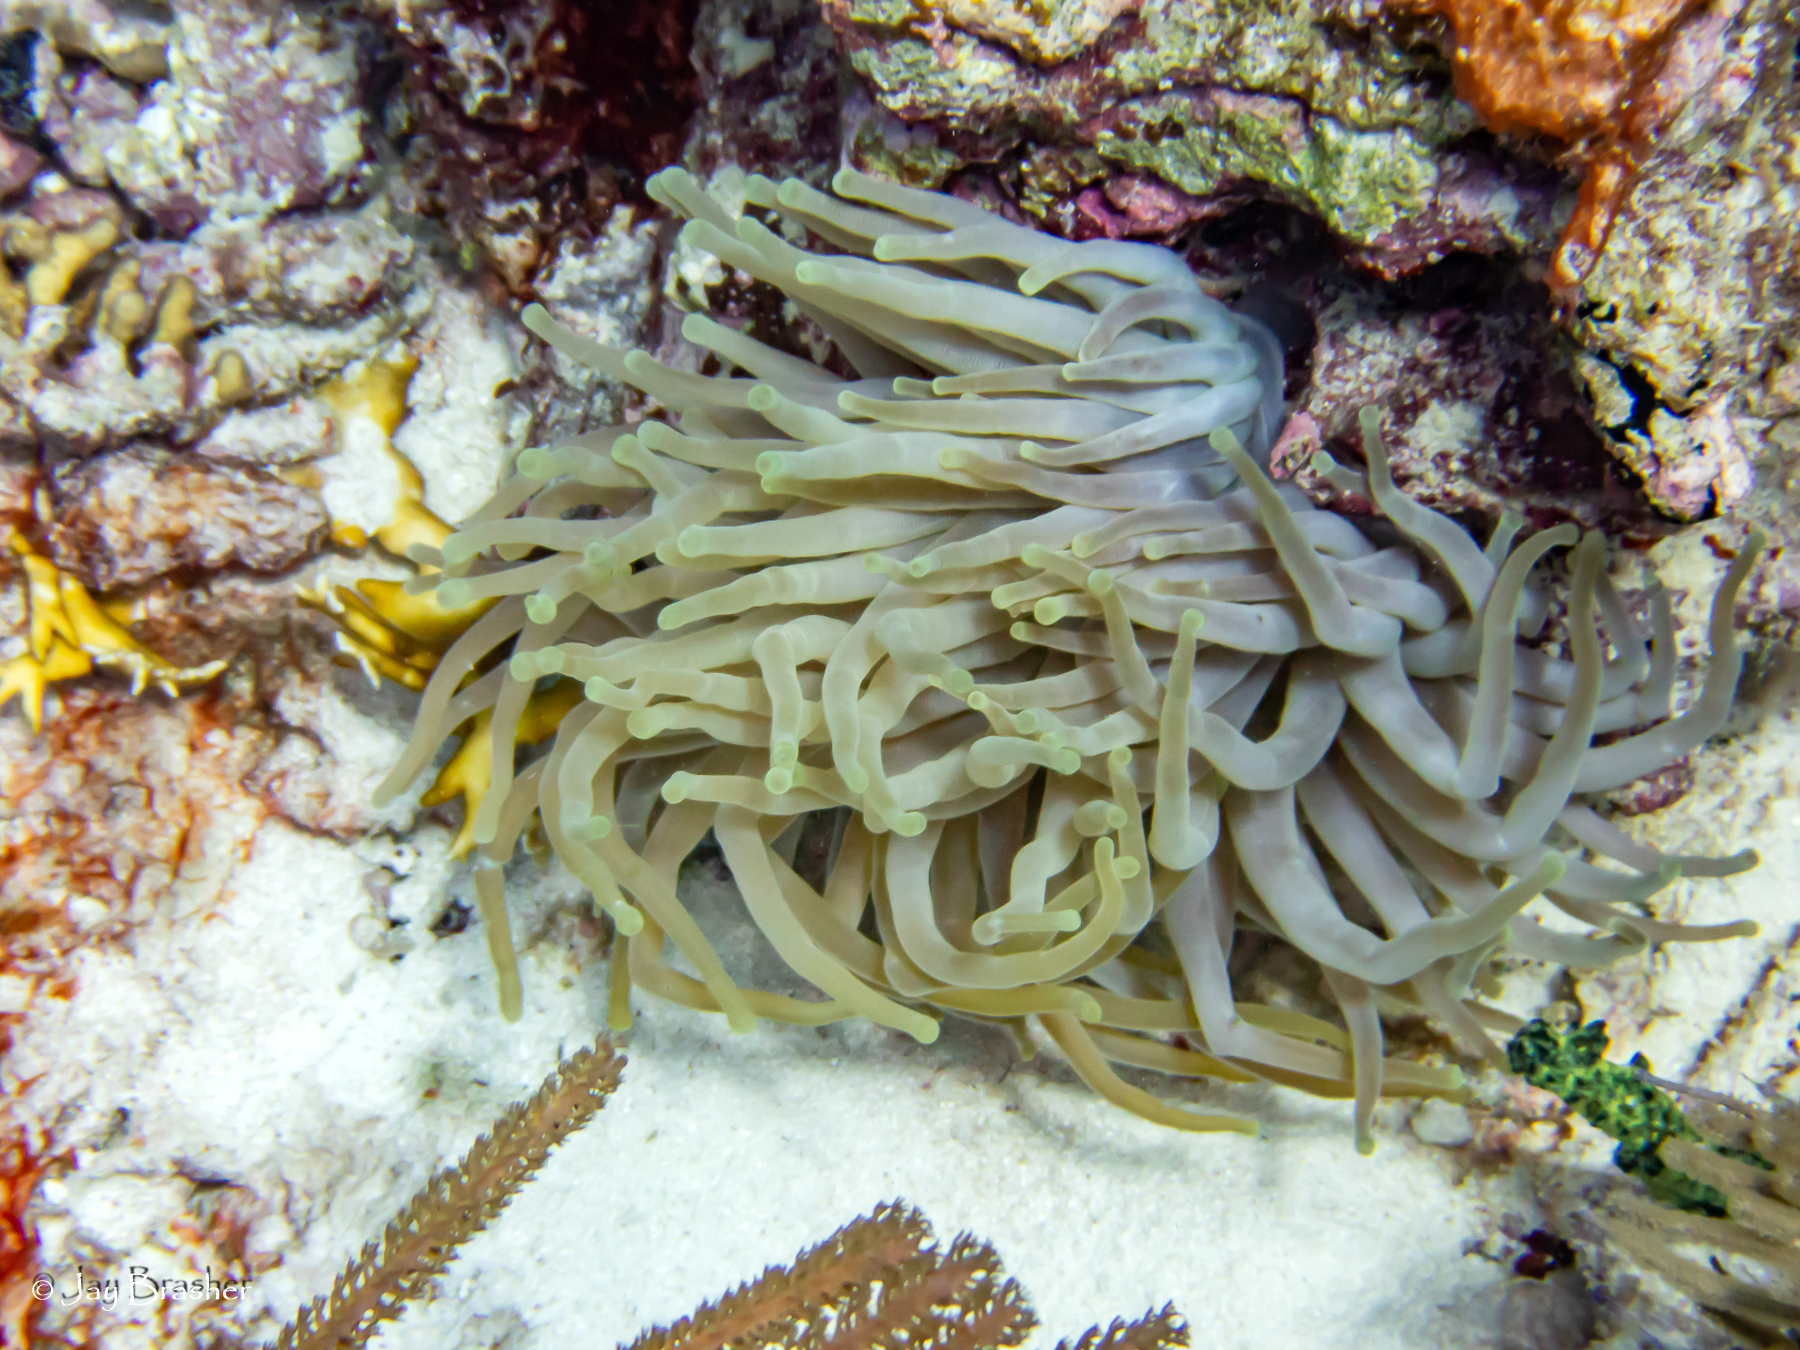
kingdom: Animalia
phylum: Cnidaria
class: Anthozoa
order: Actiniaria
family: Actiniidae
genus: Condylactis
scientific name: Condylactis gigantea
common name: Giant caribbean anemone
